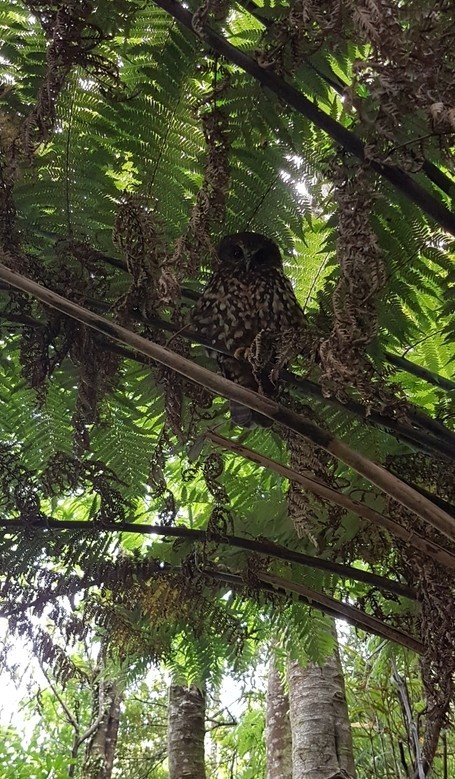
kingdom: Animalia
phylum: Chordata
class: Aves
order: Strigiformes
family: Strigidae
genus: Ninox
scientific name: Ninox novaeseelandiae
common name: Morepork
